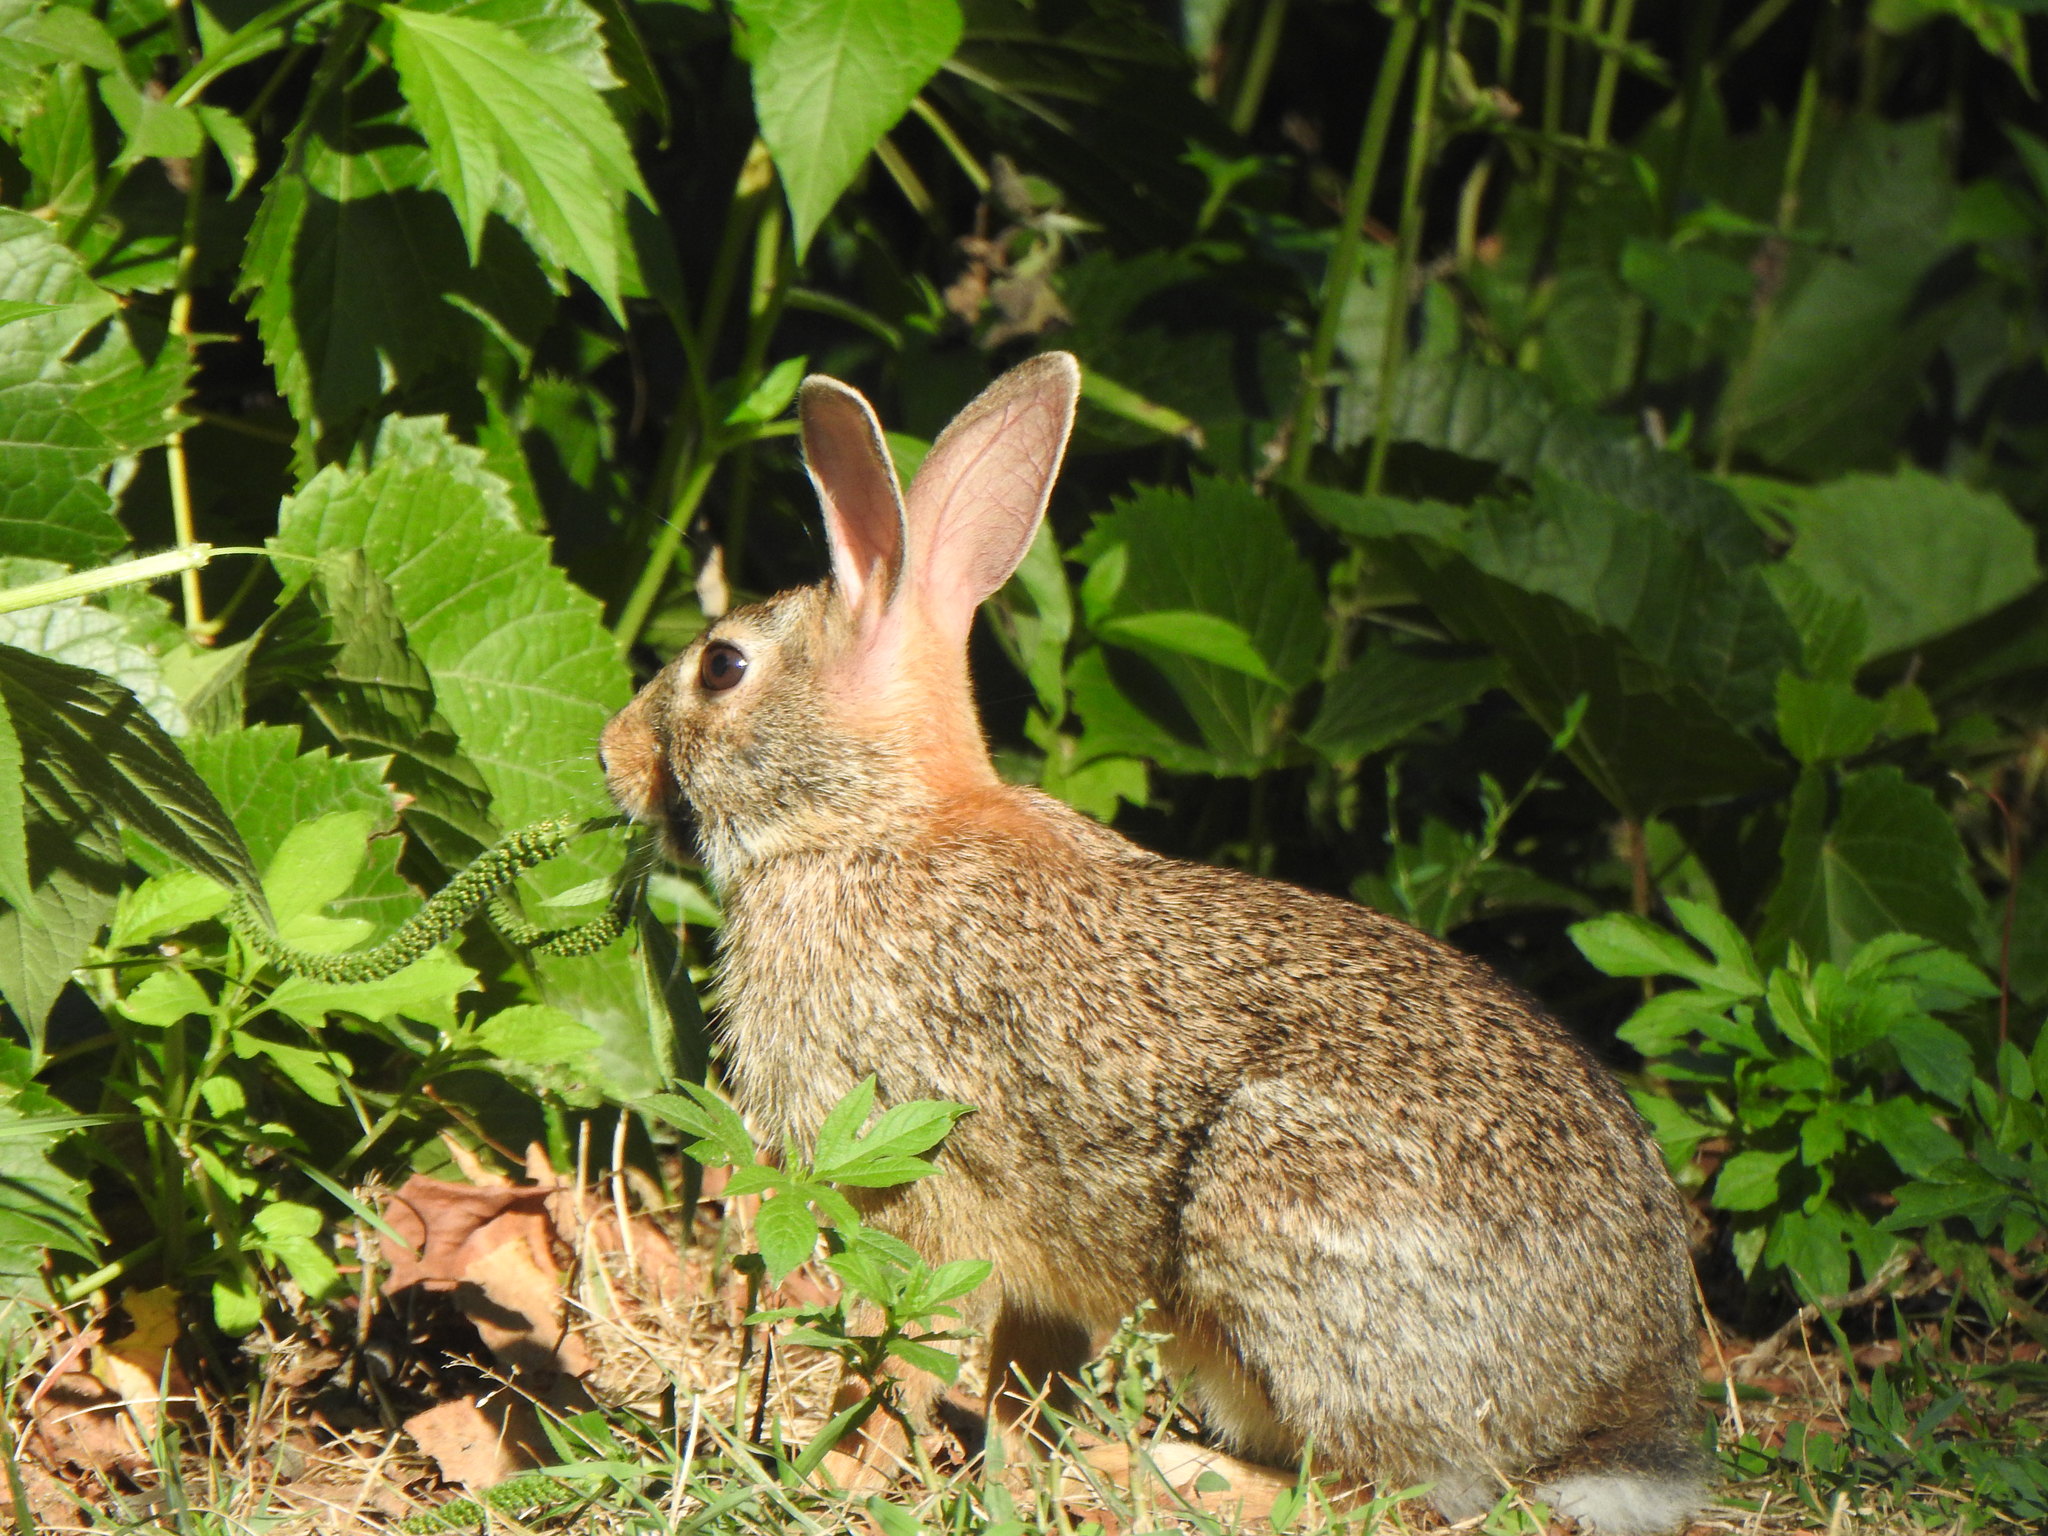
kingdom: Animalia
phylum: Chordata
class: Mammalia
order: Lagomorpha
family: Leporidae
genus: Sylvilagus
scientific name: Sylvilagus floridanus
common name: Eastern cottontail
